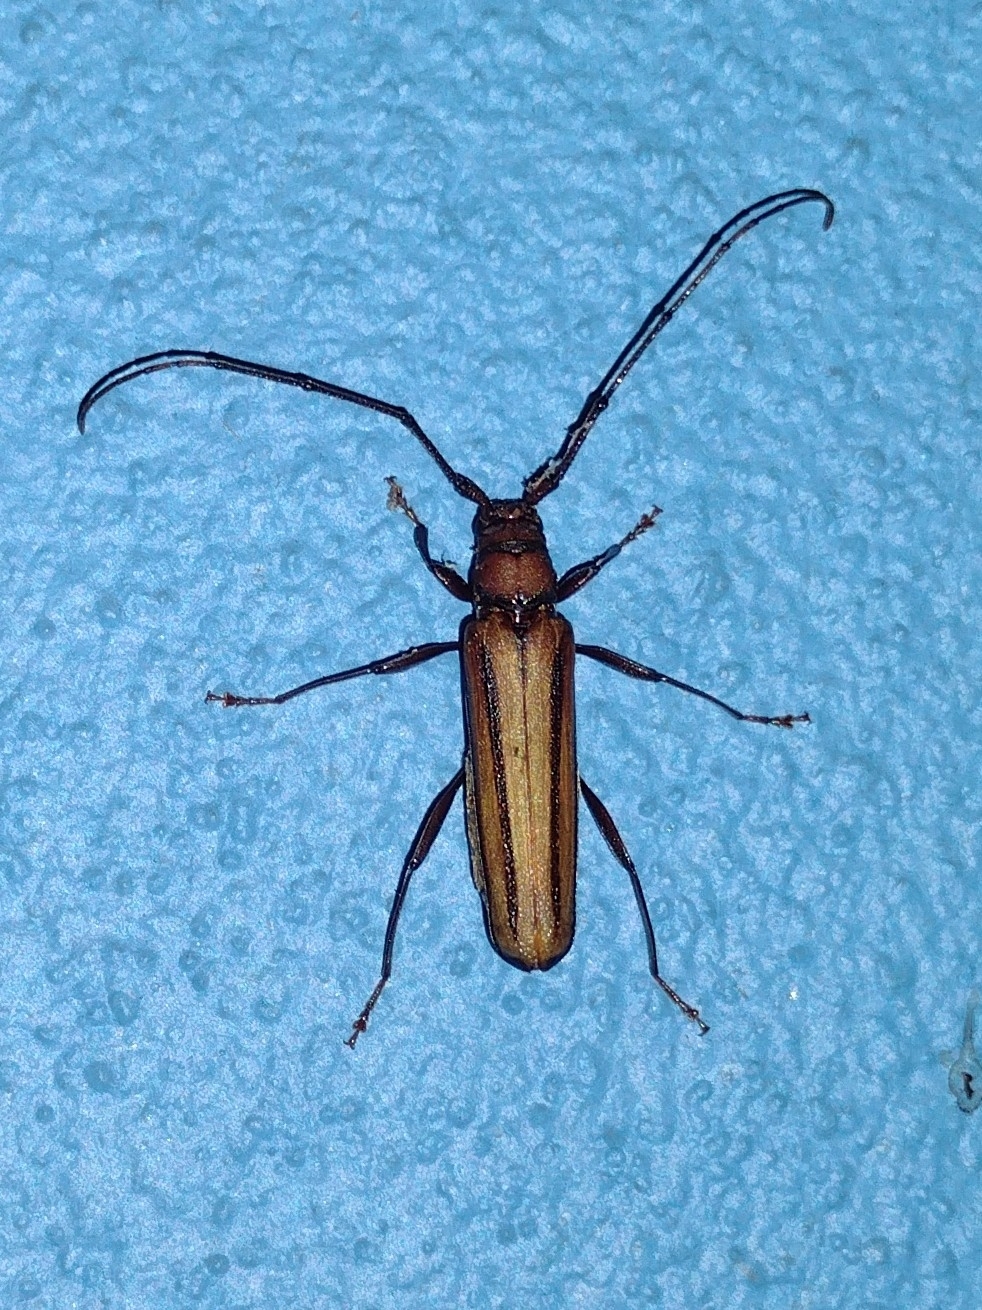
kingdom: Animalia
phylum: Arthropoda
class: Insecta
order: Coleoptera
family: Cerambycidae
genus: Xystrocera
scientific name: Xystrocera globosa
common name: Peach-tree longhorn
